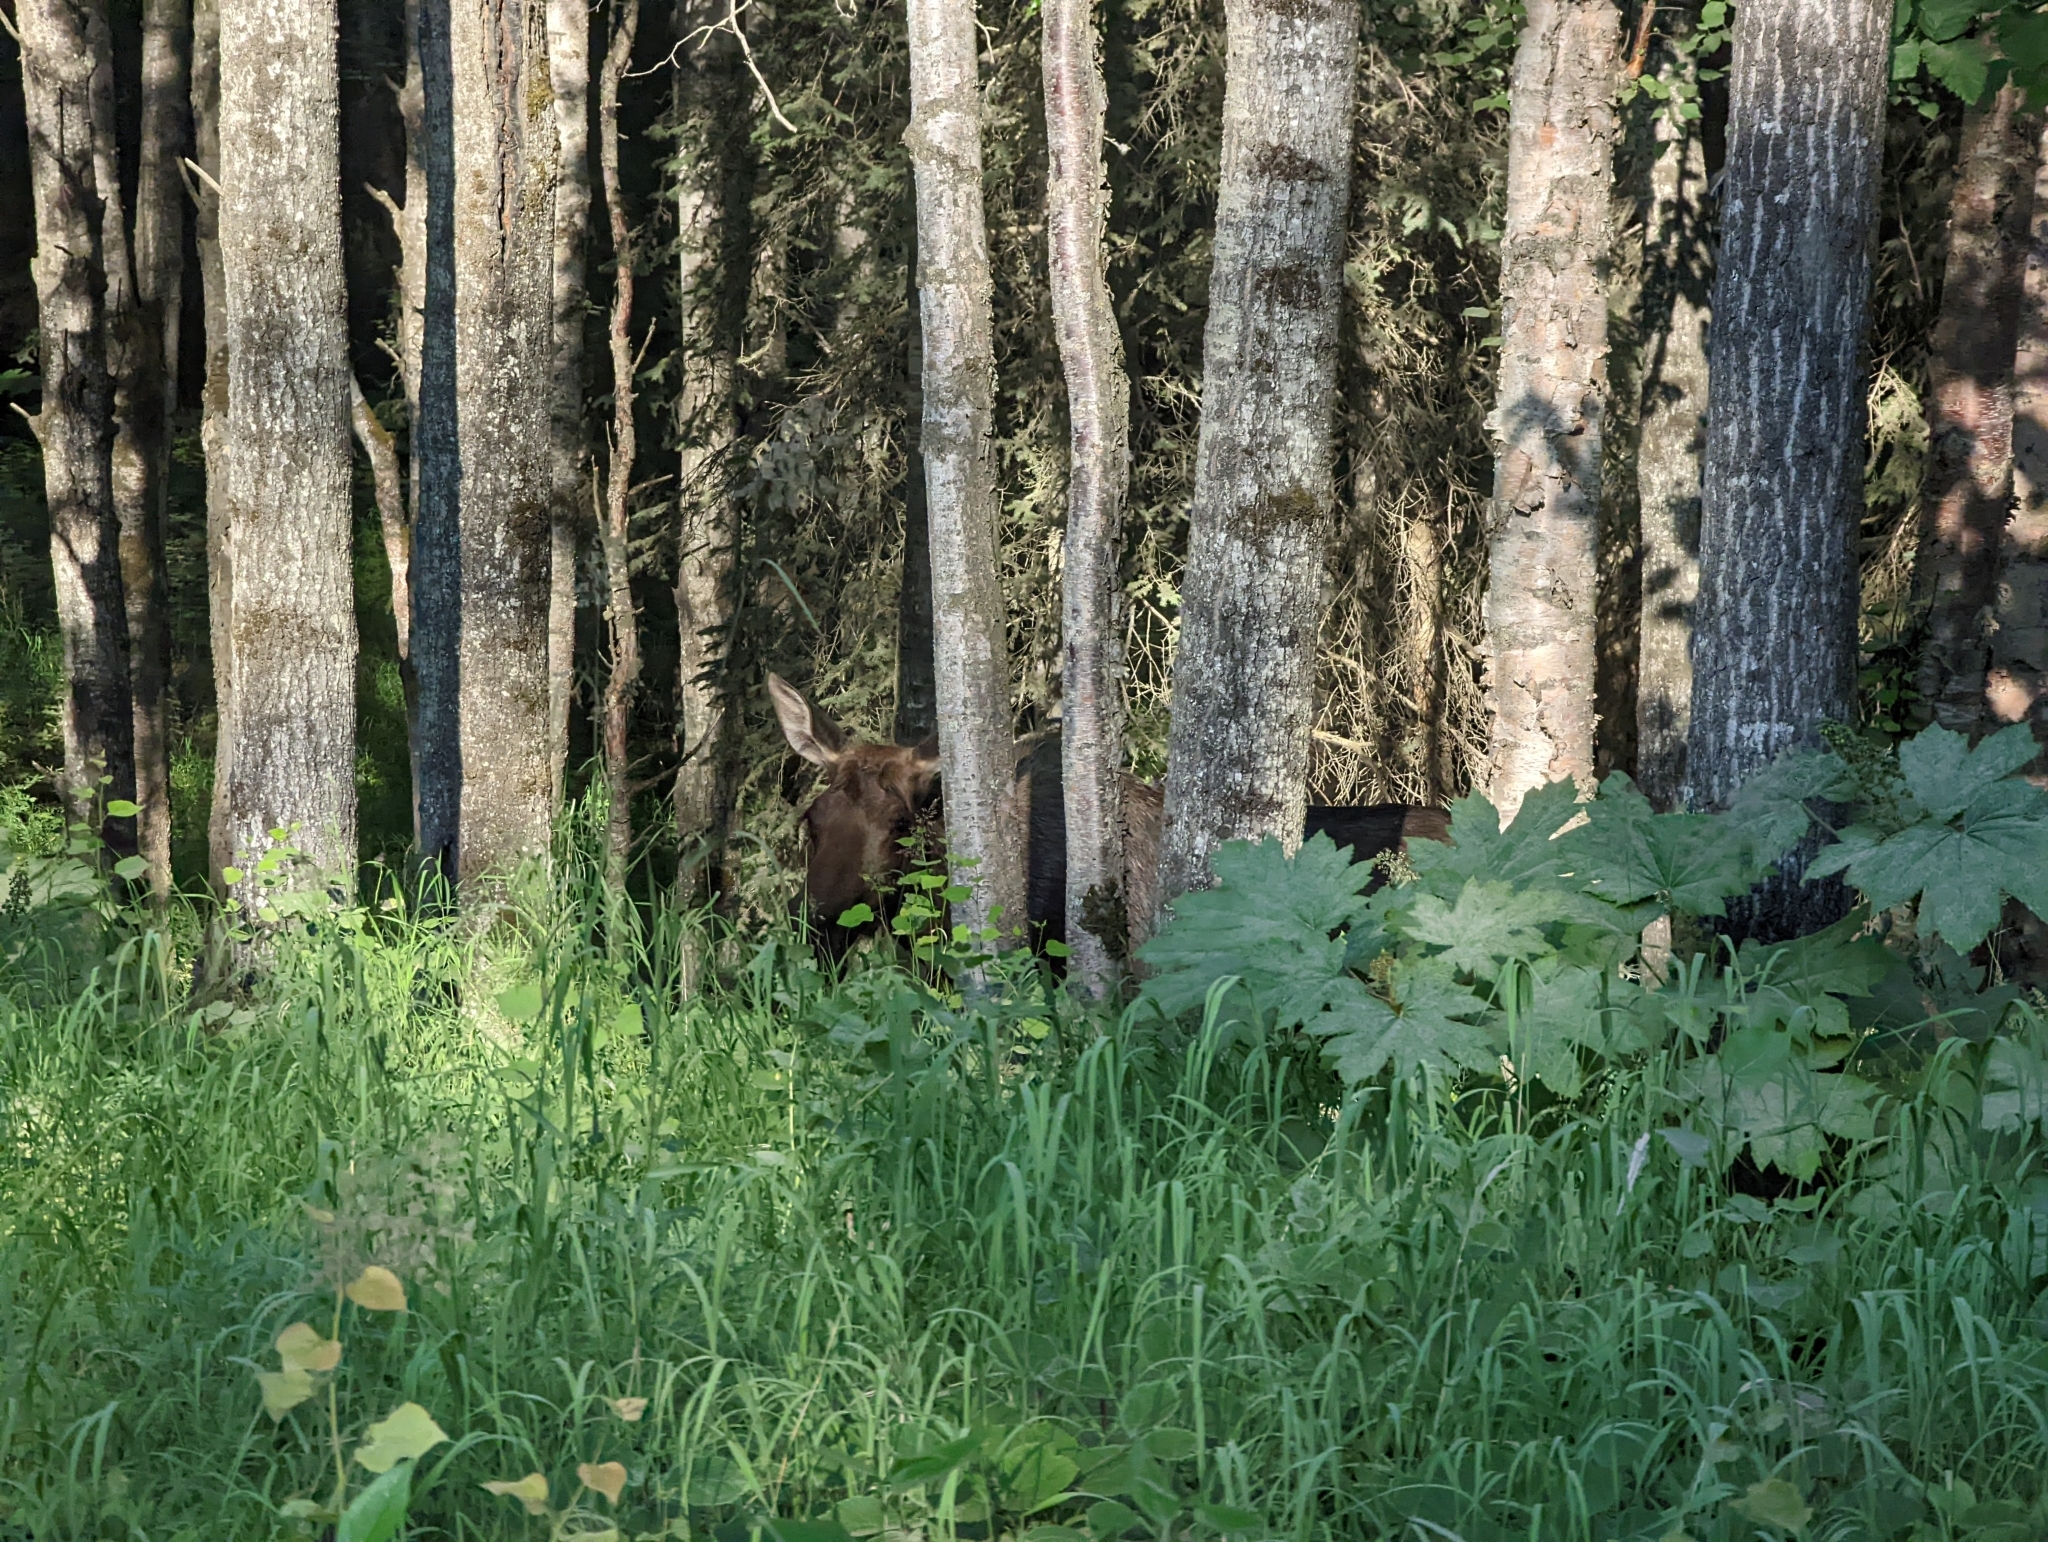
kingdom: Animalia
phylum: Chordata
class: Mammalia
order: Artiodactyla
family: Cervidae
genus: Alces
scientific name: Alces alces
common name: Moose
